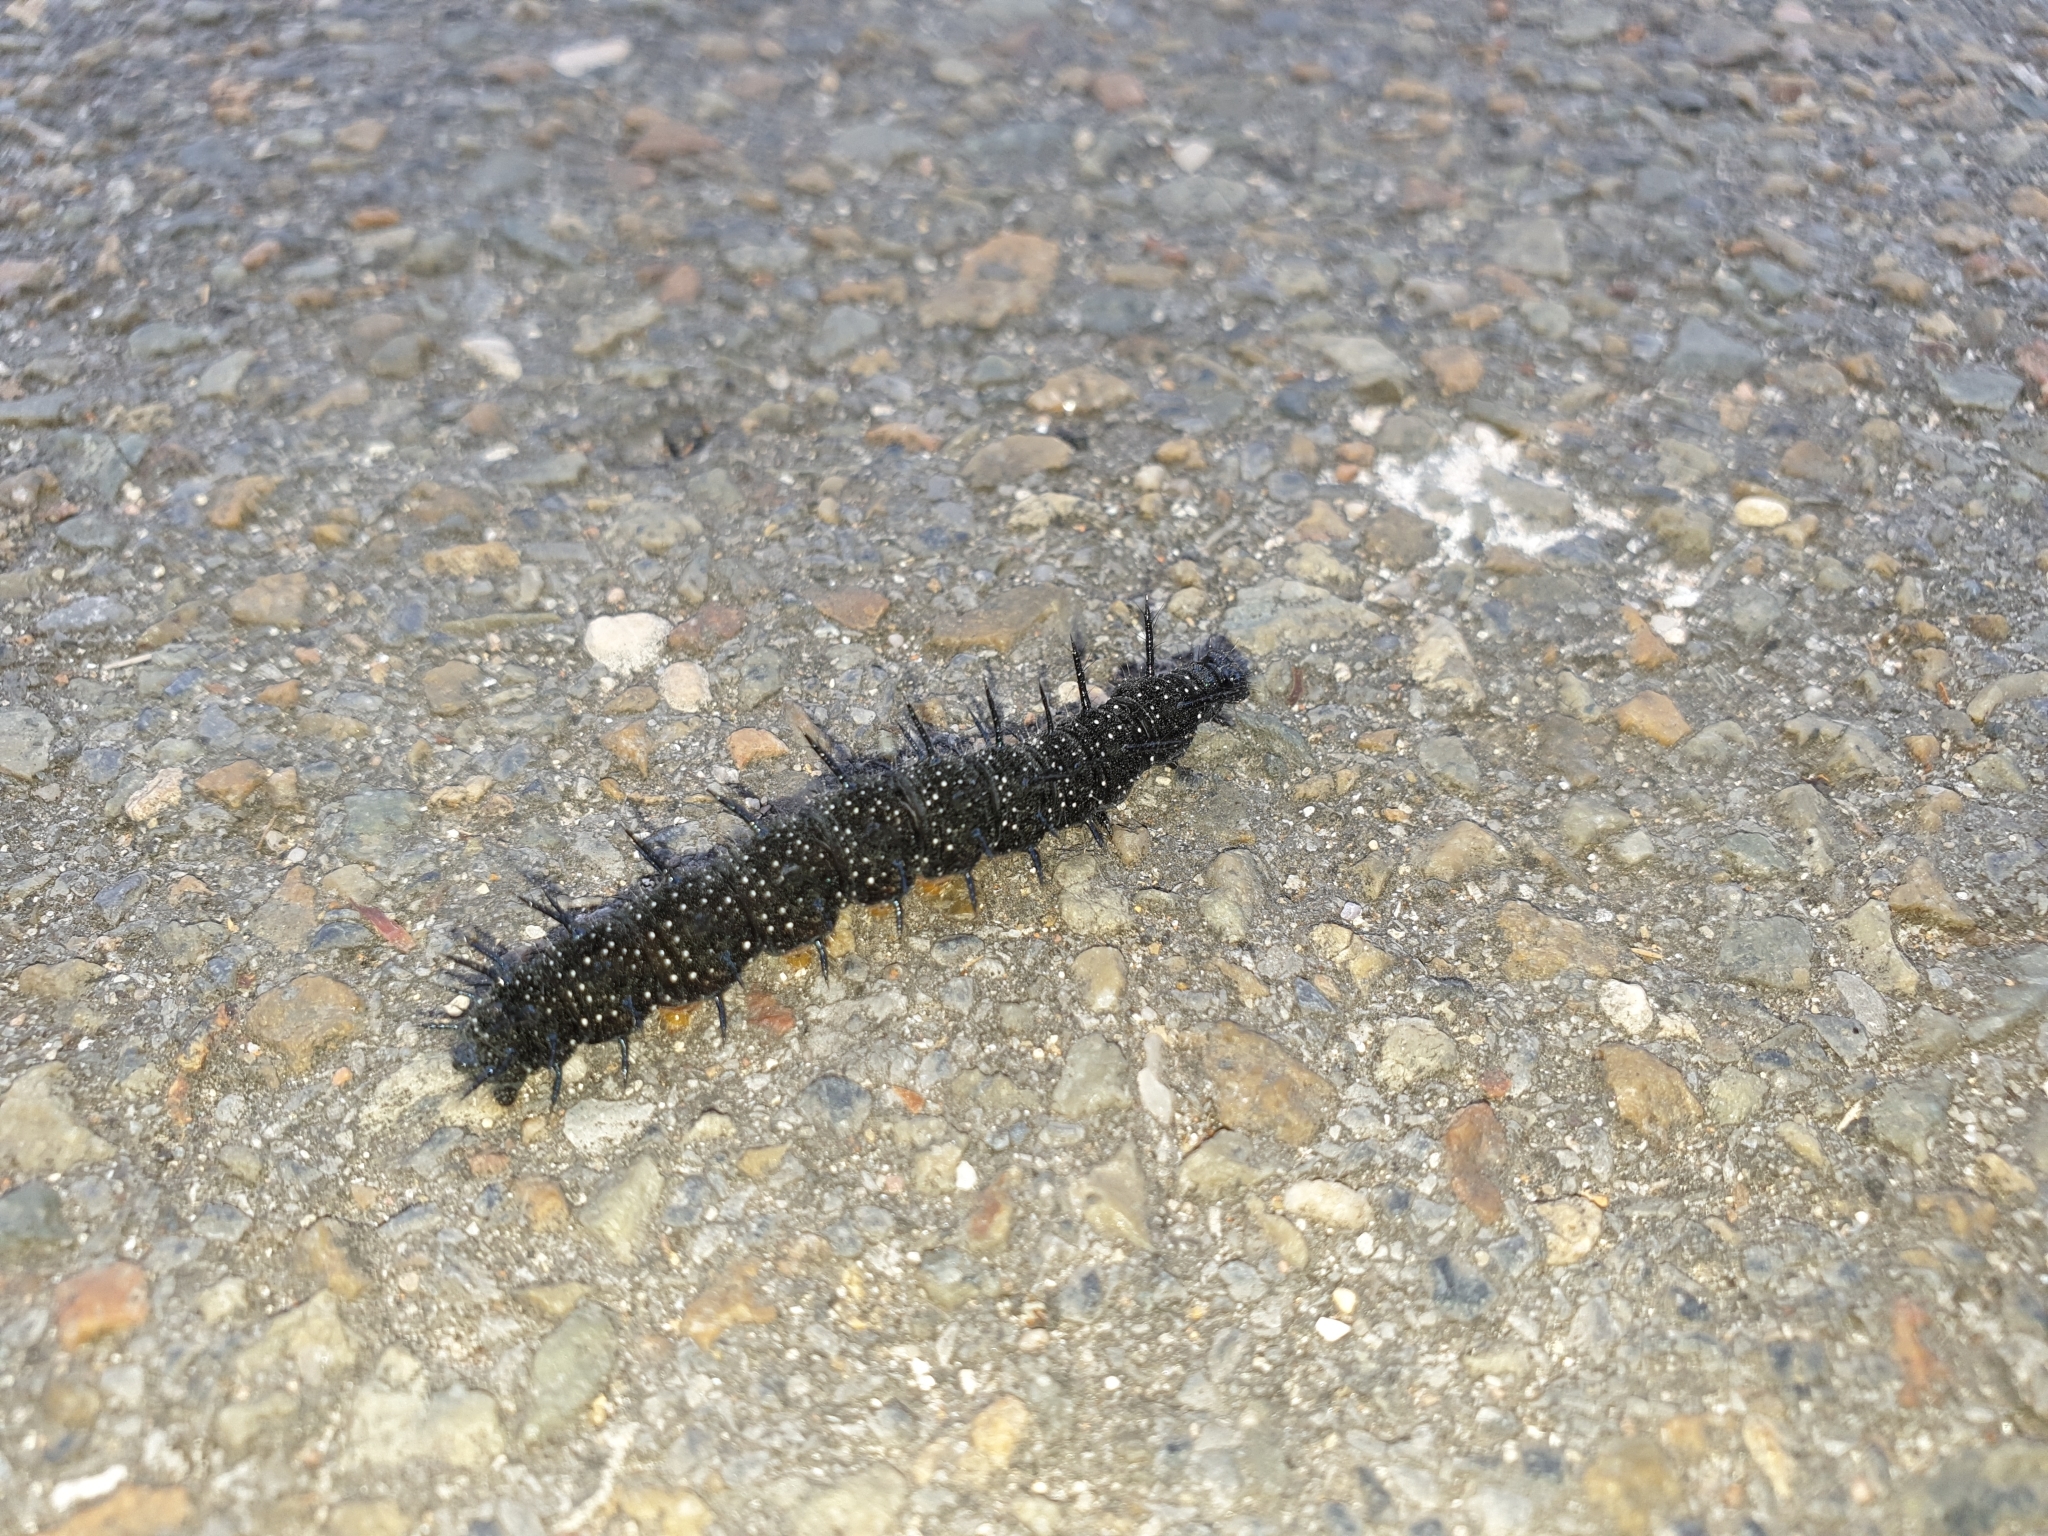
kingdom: Animalia
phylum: Arthropoda
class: Insecta
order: Lepidoptera
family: Nymphalidae
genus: Aglais
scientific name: Aglais io
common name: Peacock
